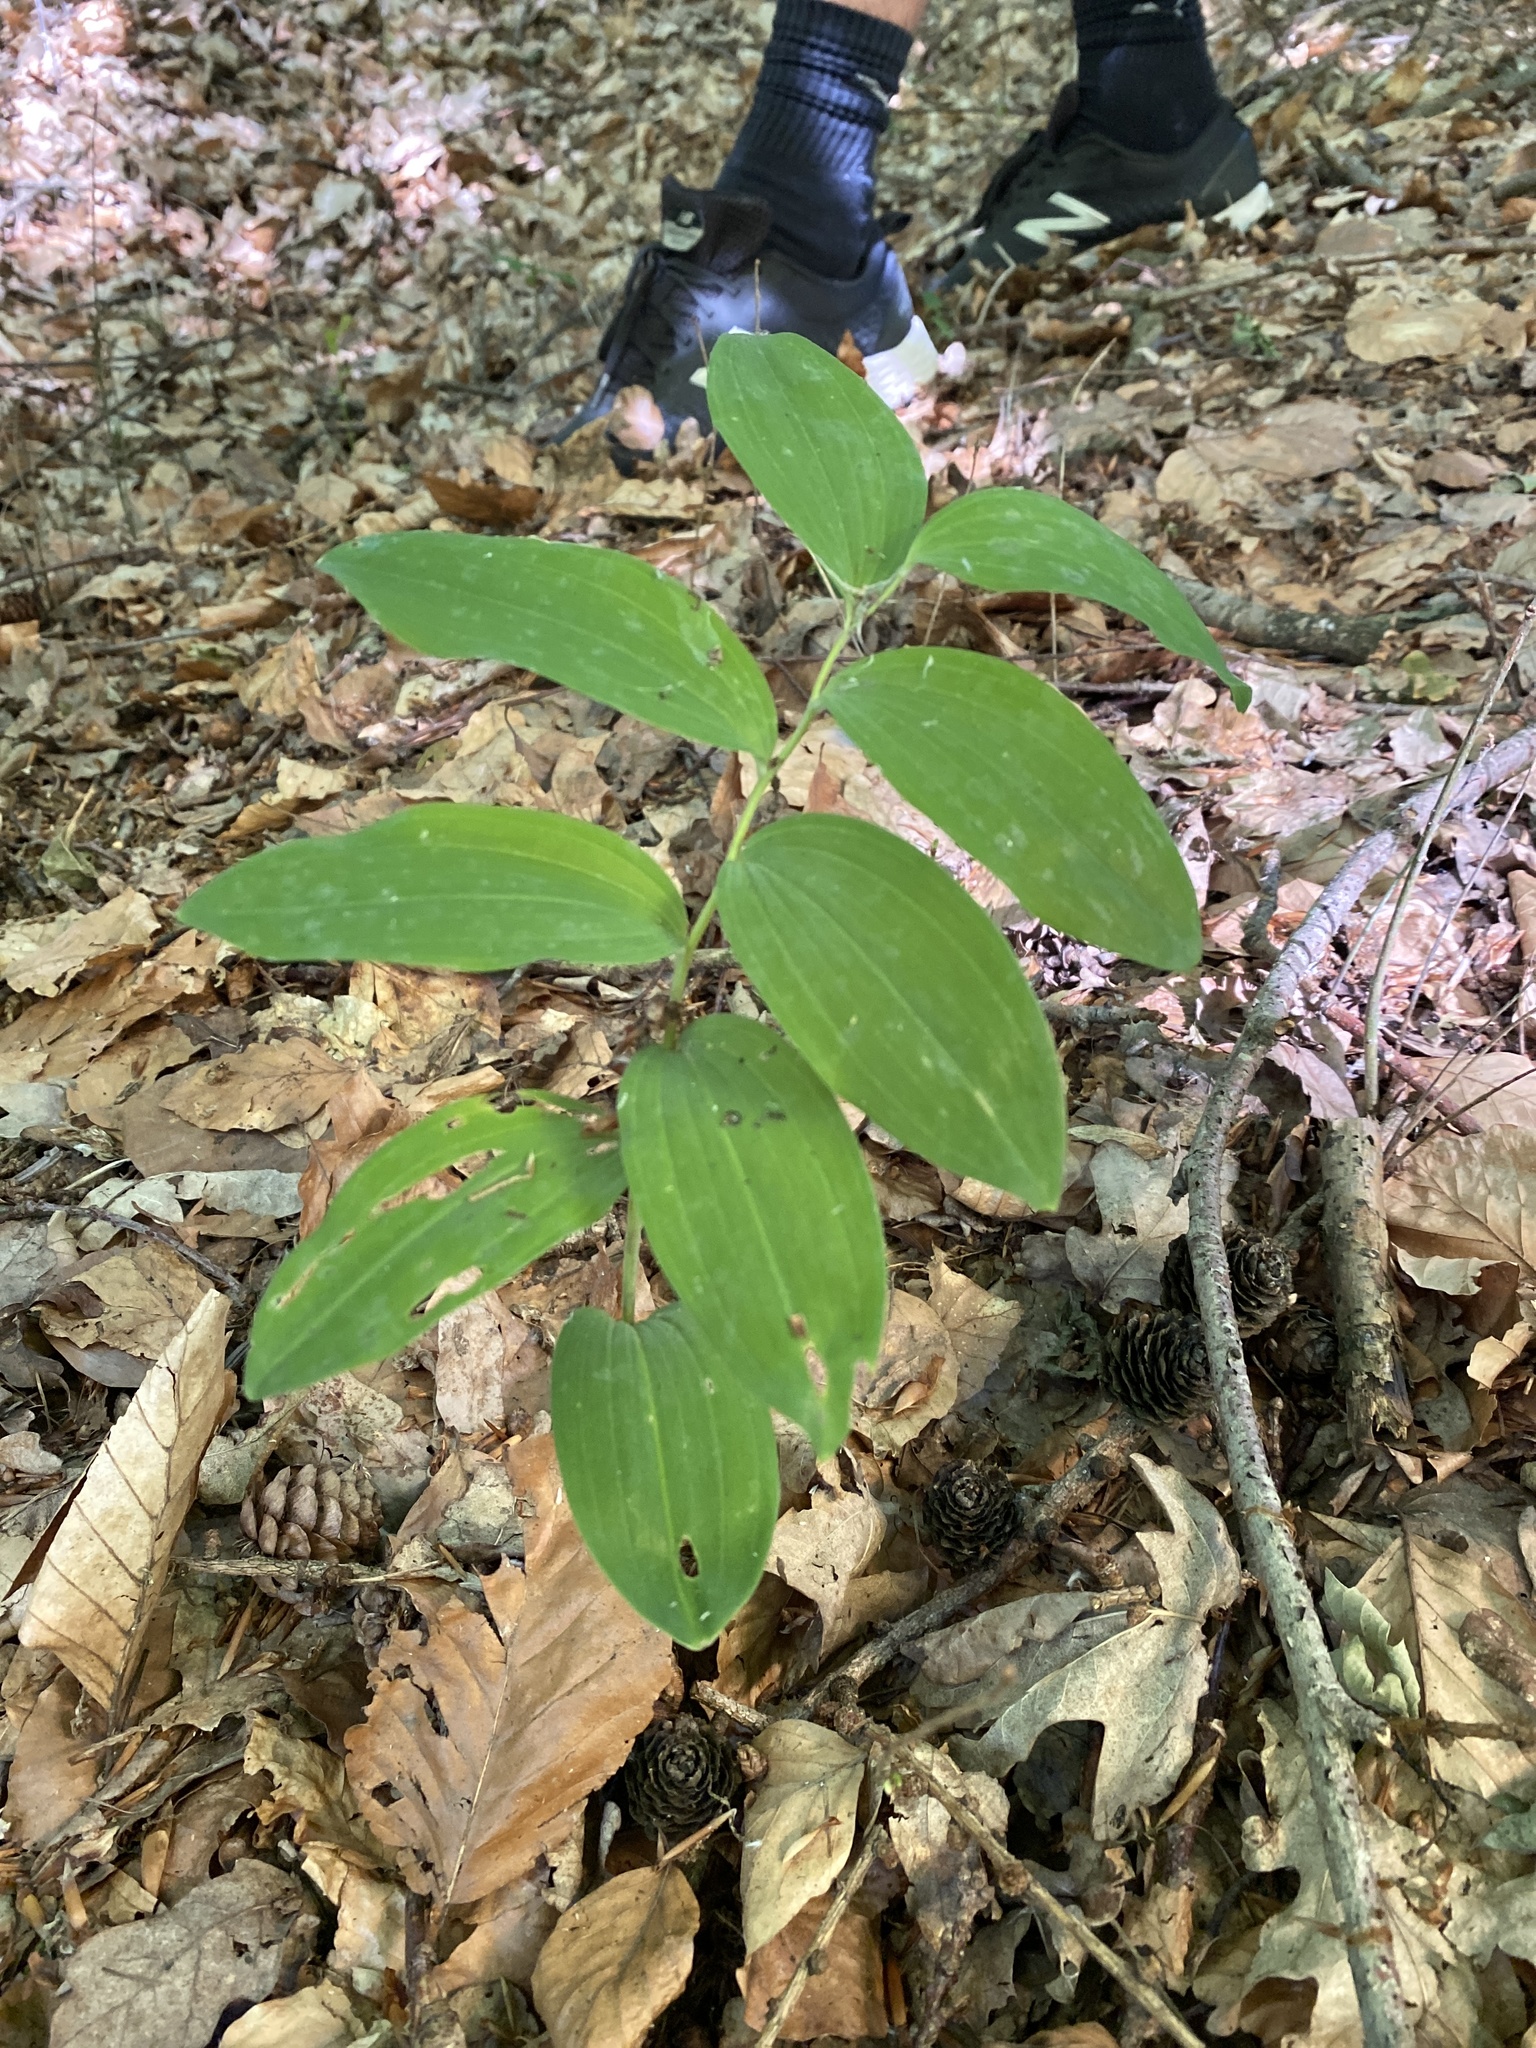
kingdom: Plantae
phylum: Tracheophyta
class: Liliopsida
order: Asparagales
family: Asparagaceae
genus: Polygonatum
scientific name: Polygonatum multiflorum
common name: Solomon's-seal
